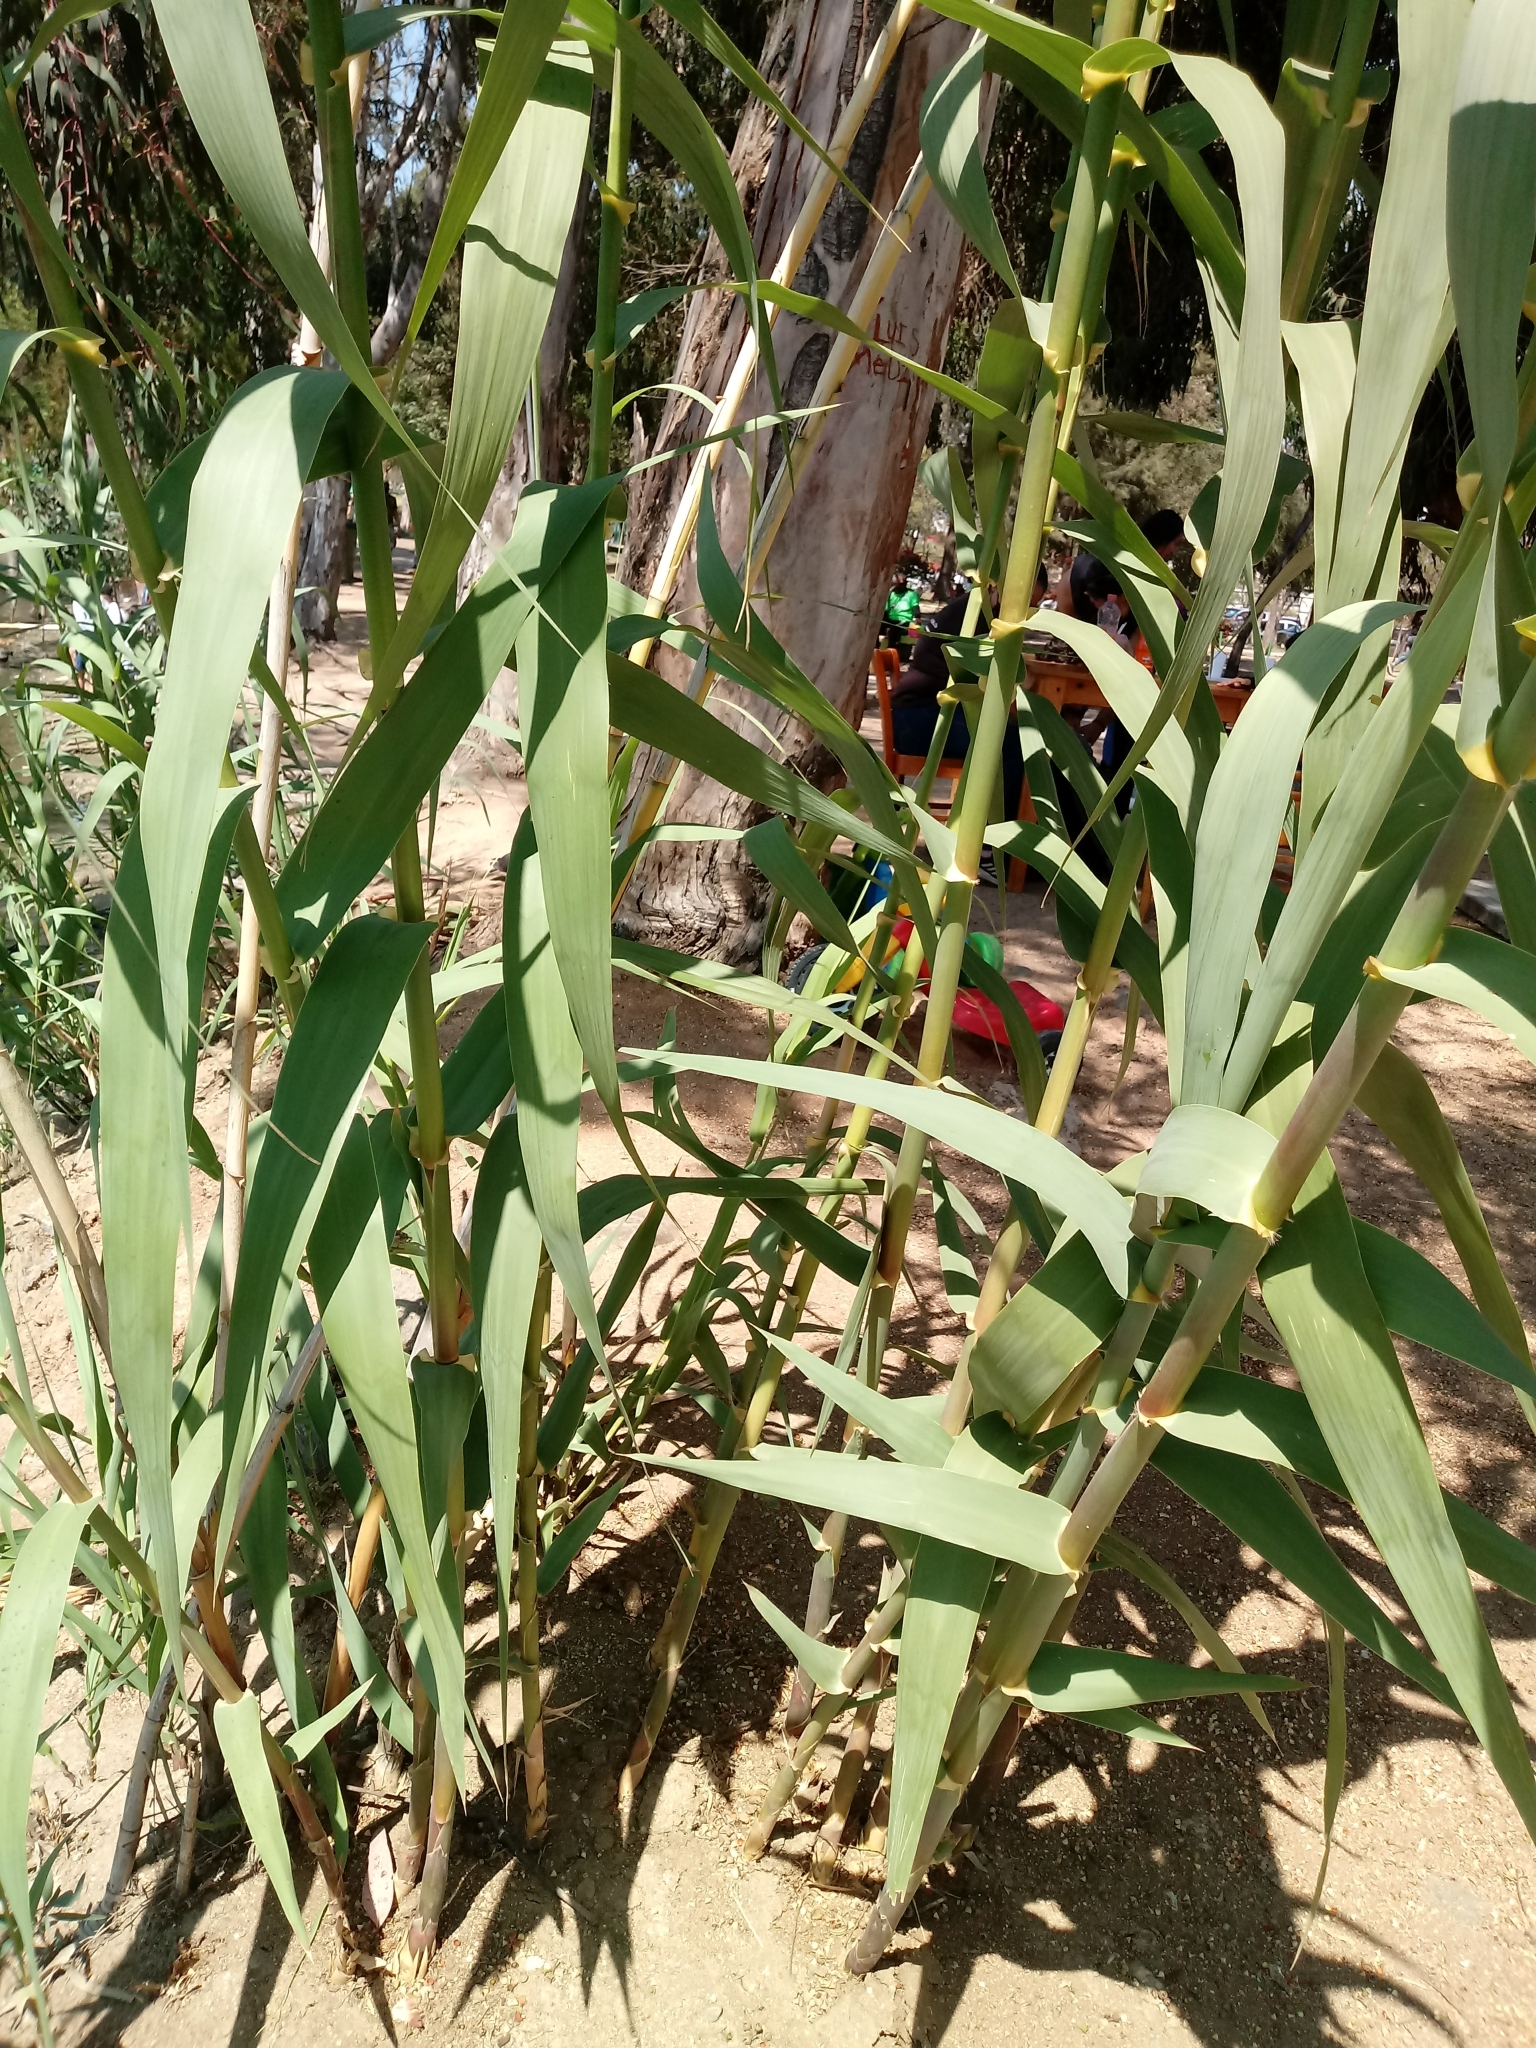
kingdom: Plantae
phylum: Tracheophyta
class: Liliopsida
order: Poales
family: Poaceae
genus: Arundo
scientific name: Arundo donax
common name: Giant reed
